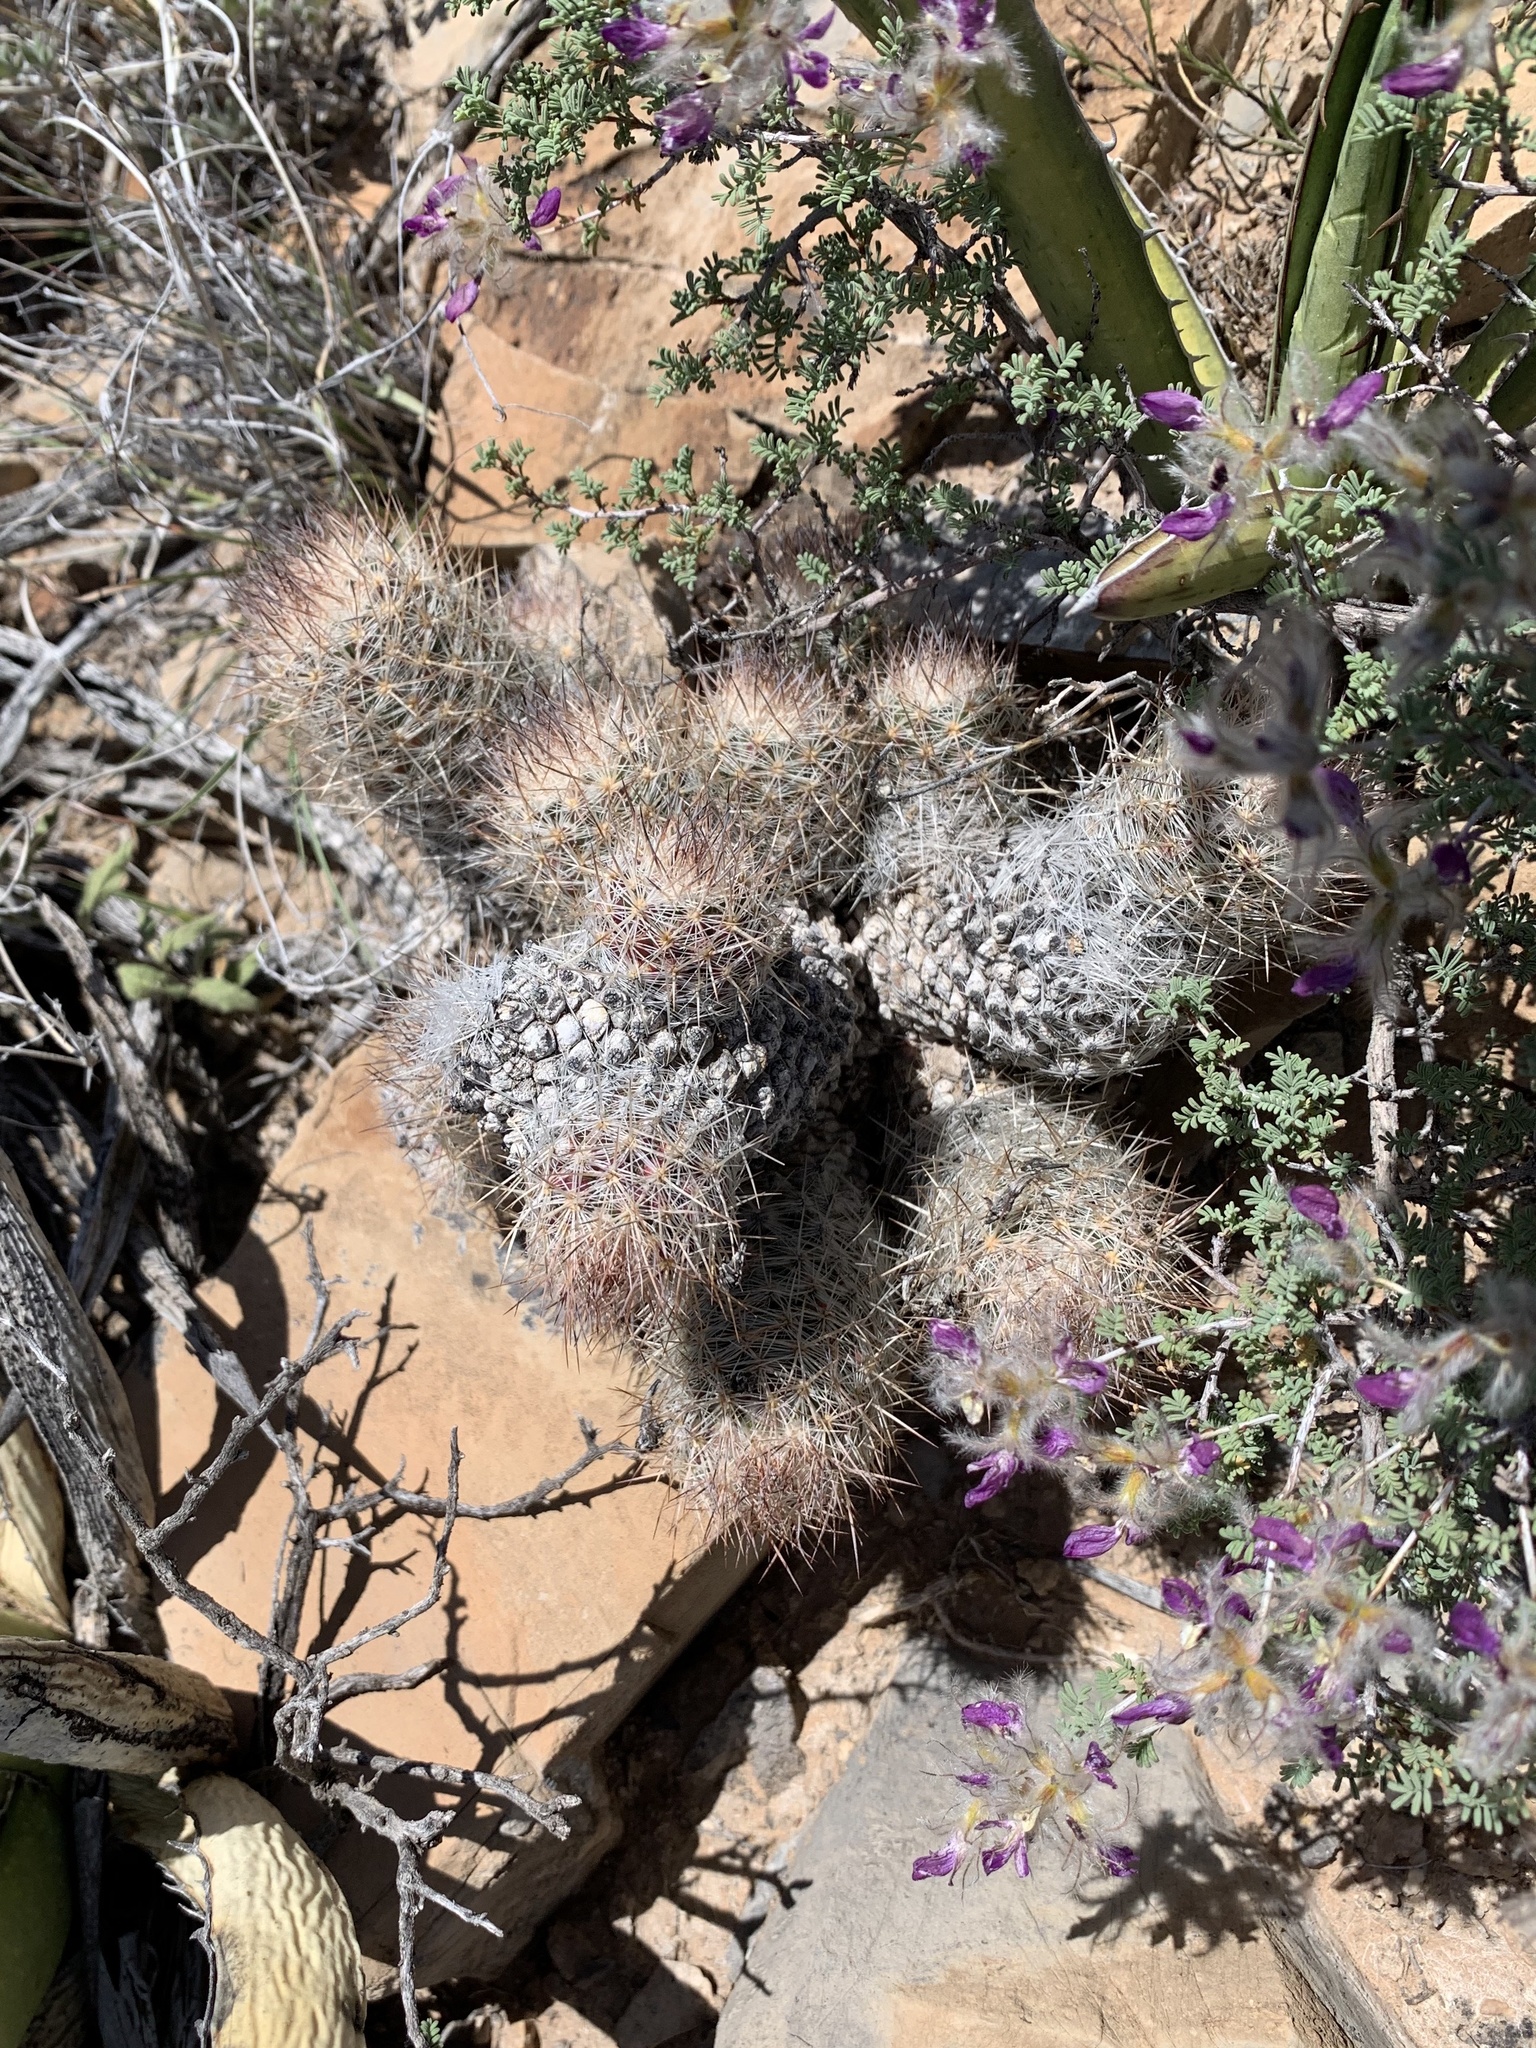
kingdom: Plantae
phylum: Tracheophyta
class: Magnoliopsida
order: Caryophyllales
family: Cactaceae
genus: Pelecyphora
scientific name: Pelecyphora tuberculosa
